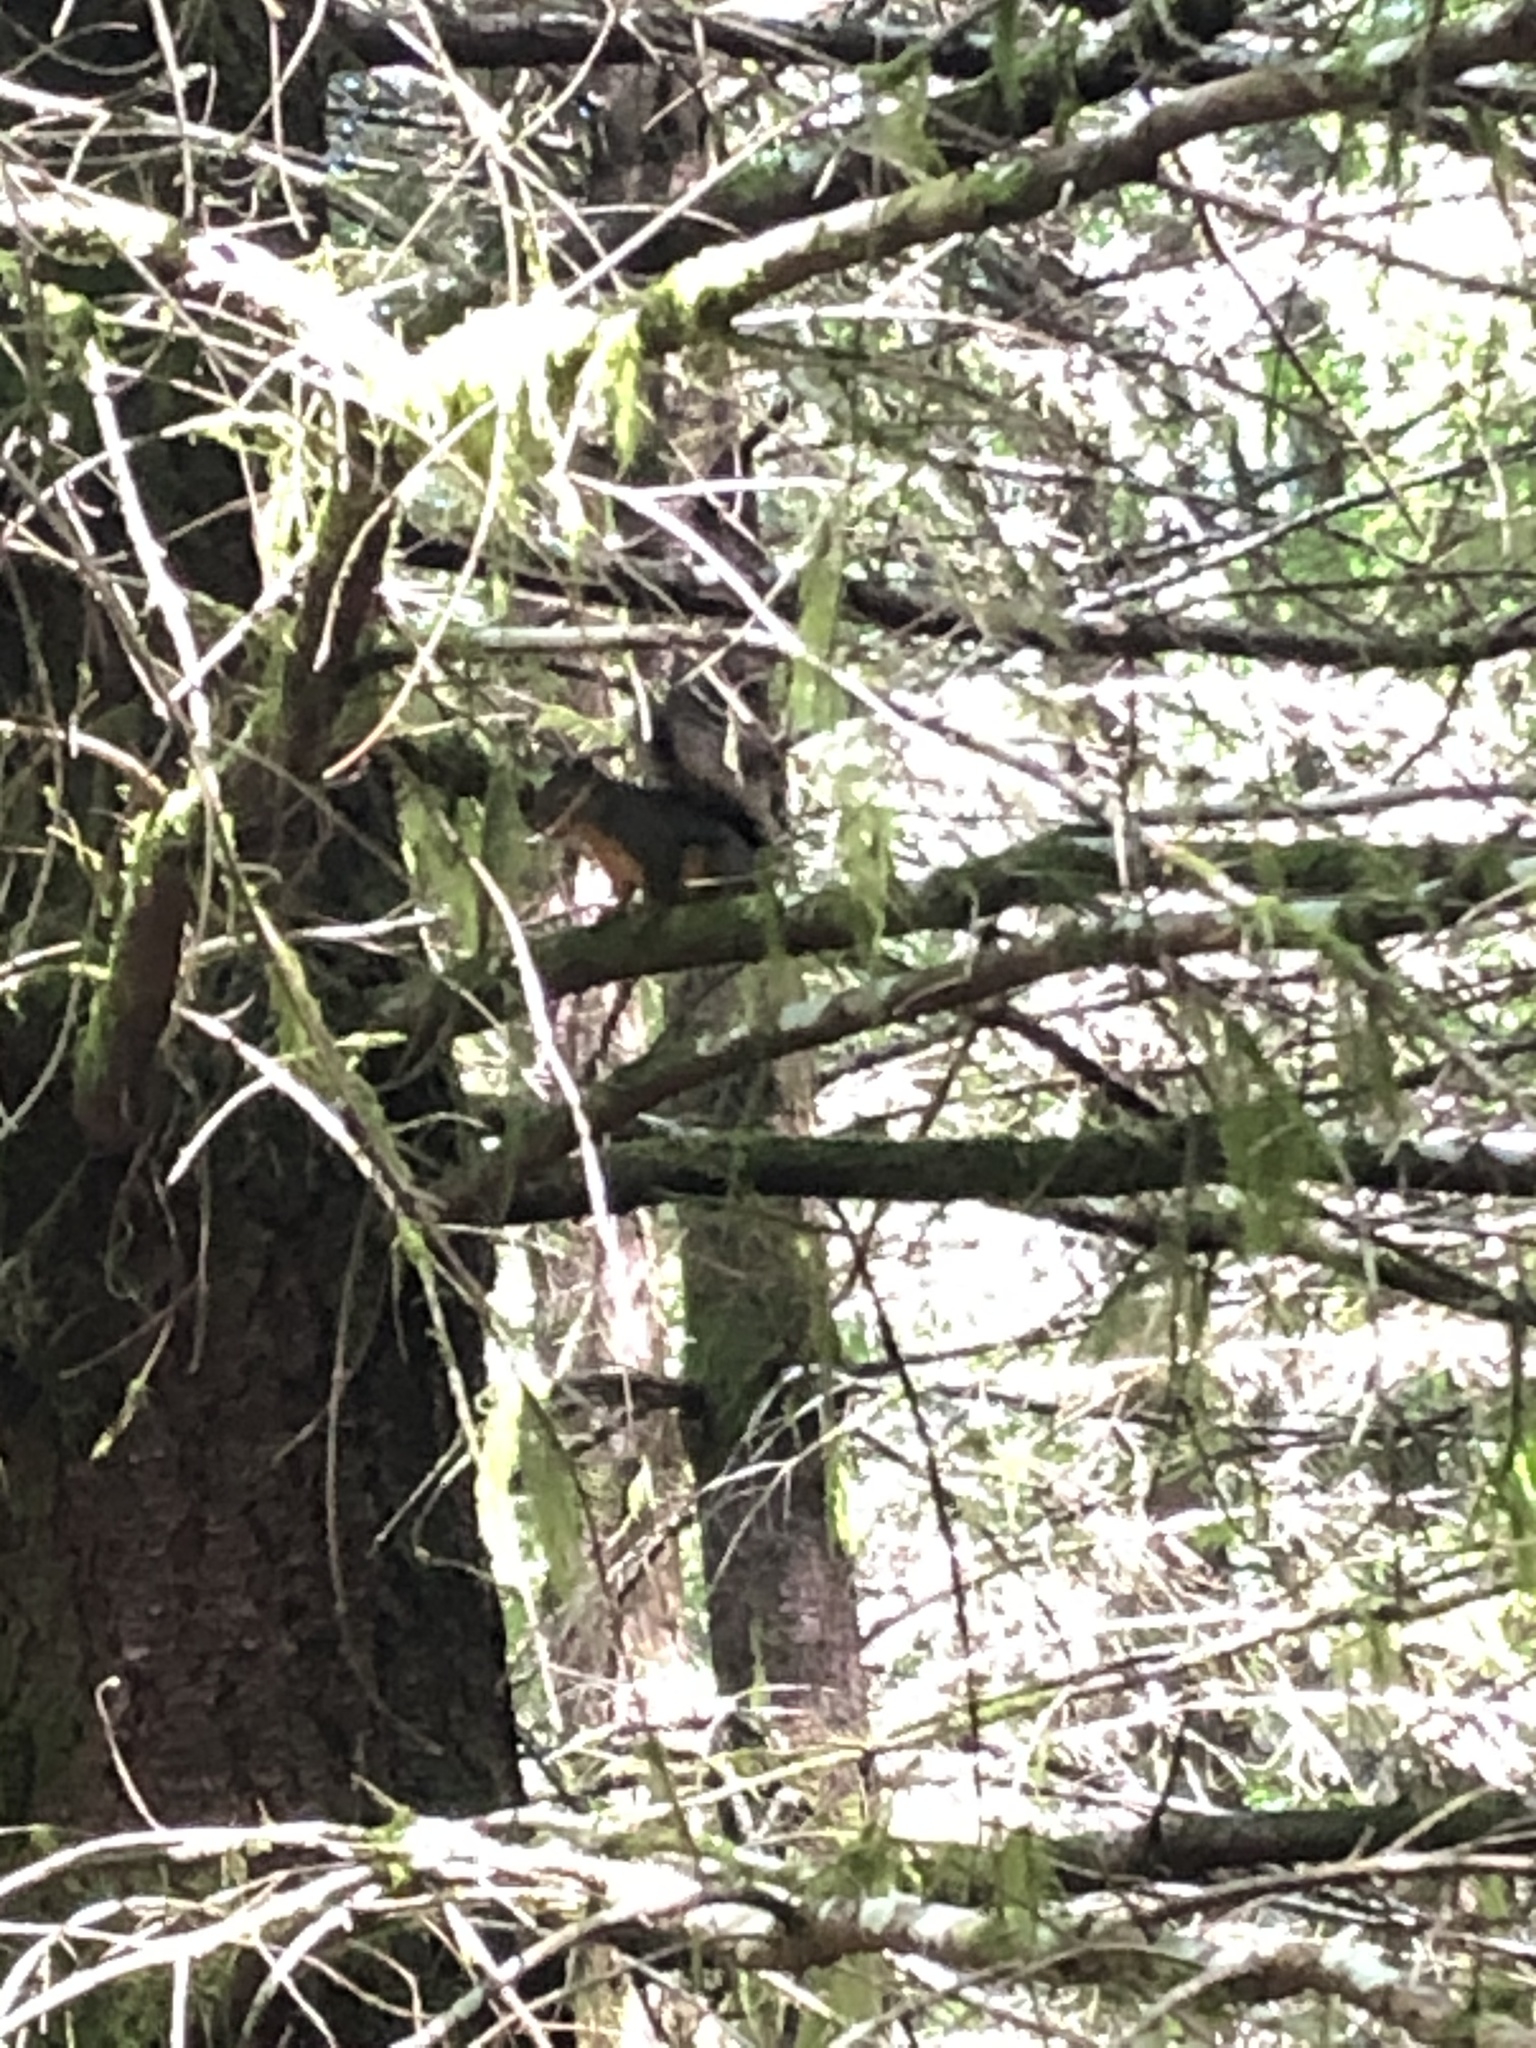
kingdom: Animalia
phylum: Chordata
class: Mammalia
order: Rodentia
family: Sciuridae
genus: Tamiasciurus
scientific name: Tamiasciurus douglasii
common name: Douglas's squirrel
